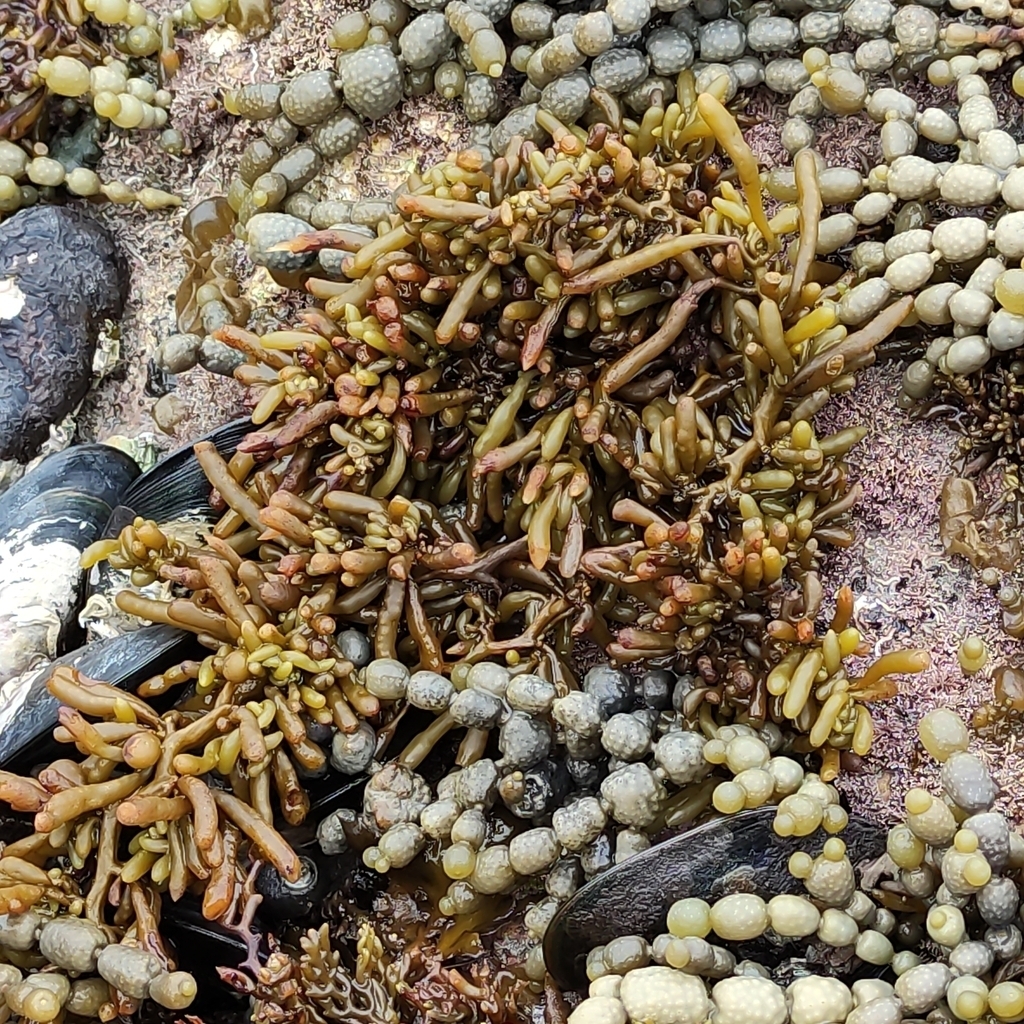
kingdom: Chromista
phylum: Ochrophyta
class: Phaeophyceae
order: Fucales
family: Hormosiraceae
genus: Hormosira
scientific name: Hormosira banksii
